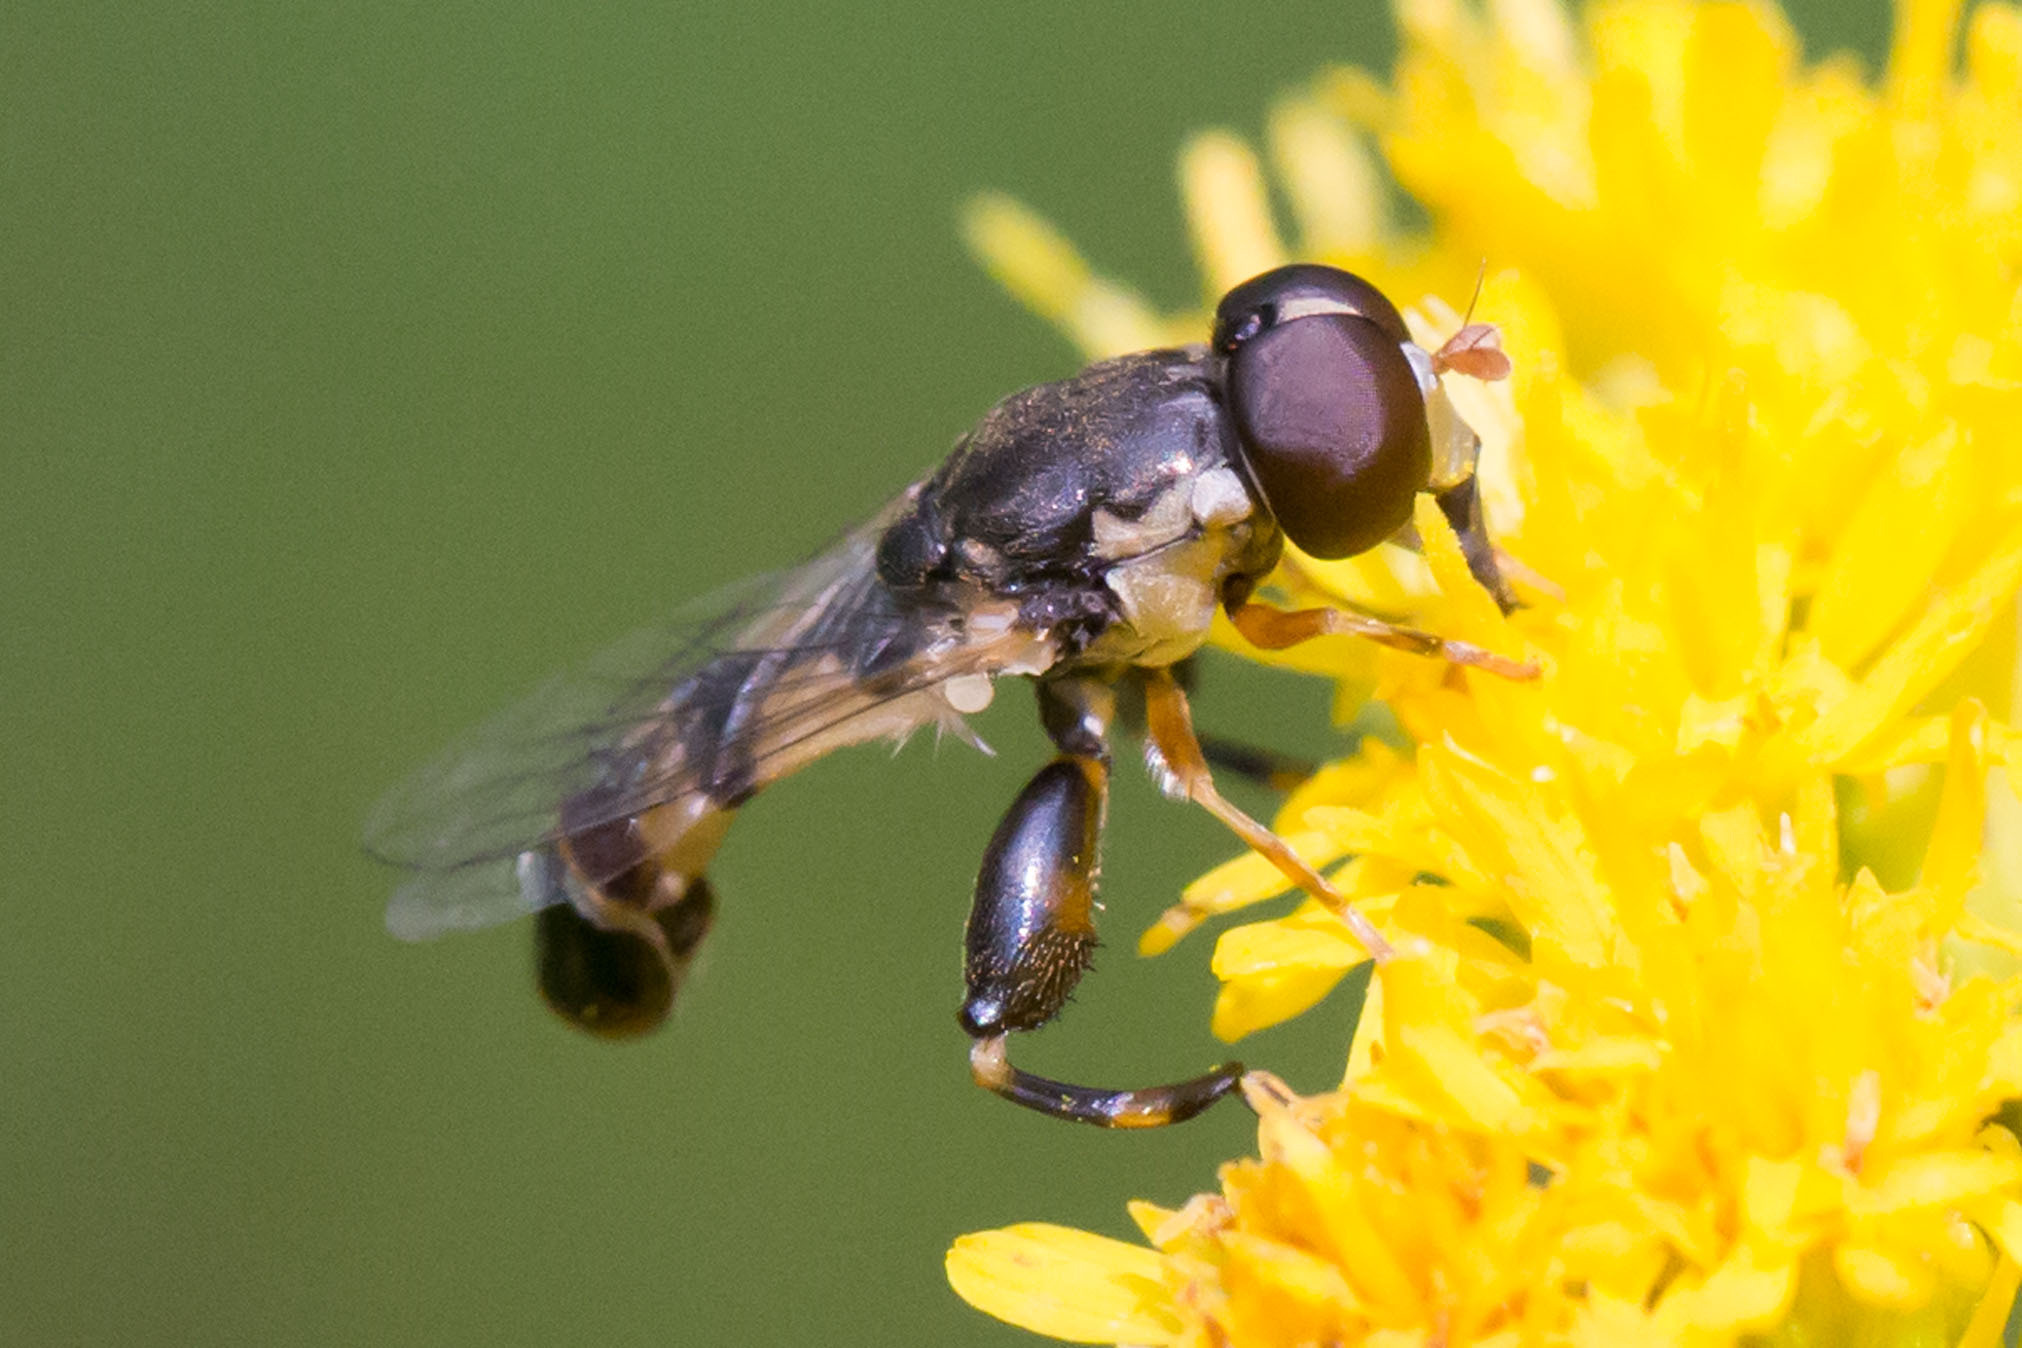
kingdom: Animalia
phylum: Arthropoda
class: Insecta
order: Diptera
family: Syrphidae
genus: Syritta
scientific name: Syritta pipiens
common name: Hover fly
